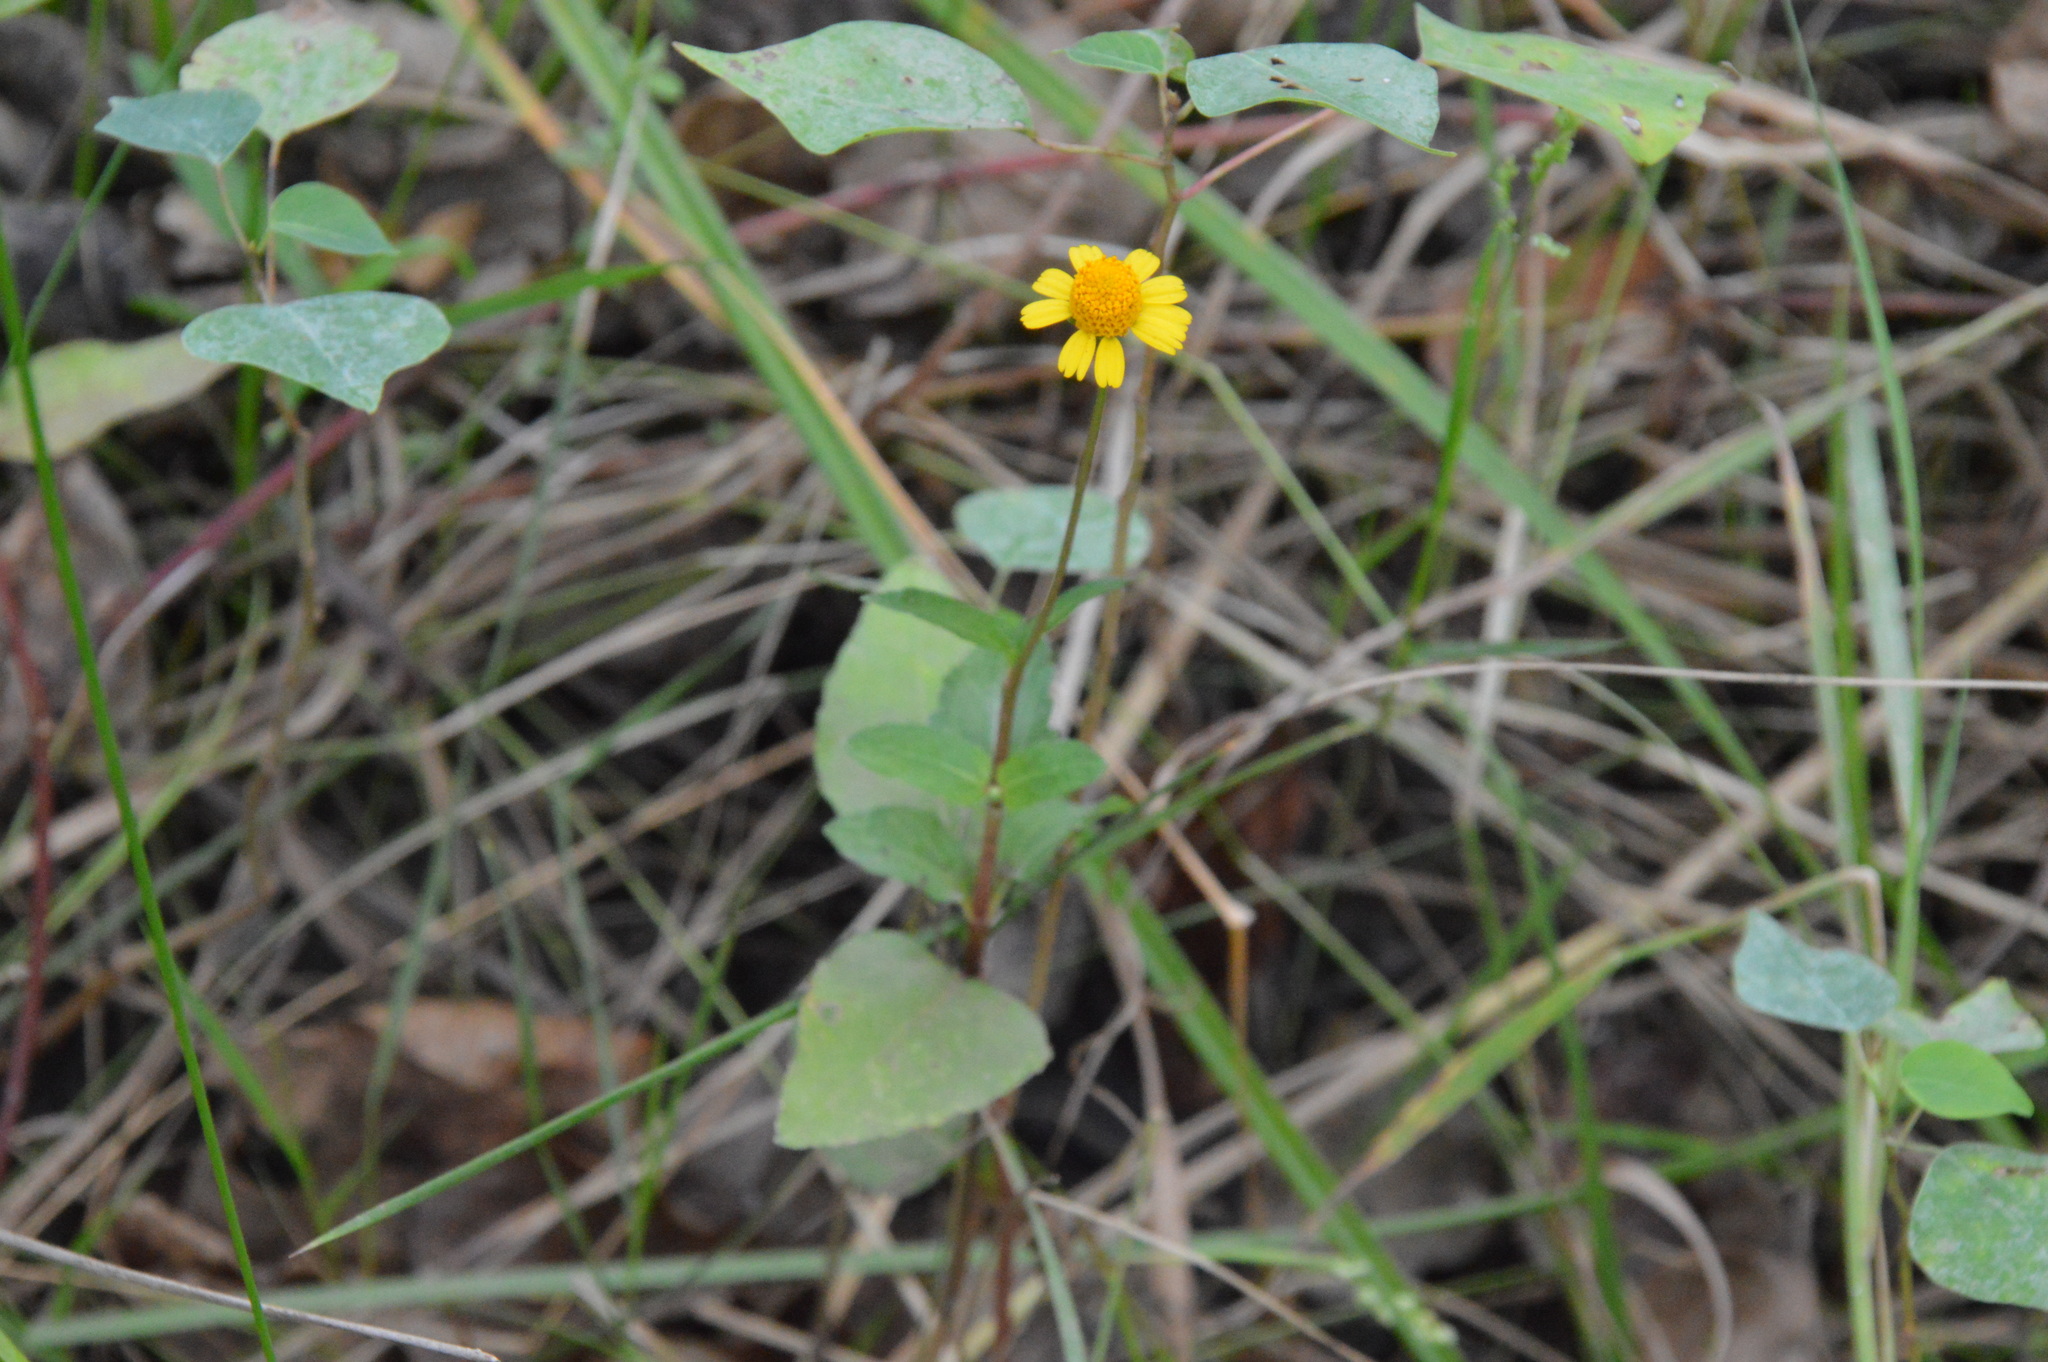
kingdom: Plantae
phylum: Tracheophyta
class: Magnoliopsida
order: Asterales
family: Asteraceae
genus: Acmella
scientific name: Acmella repens
